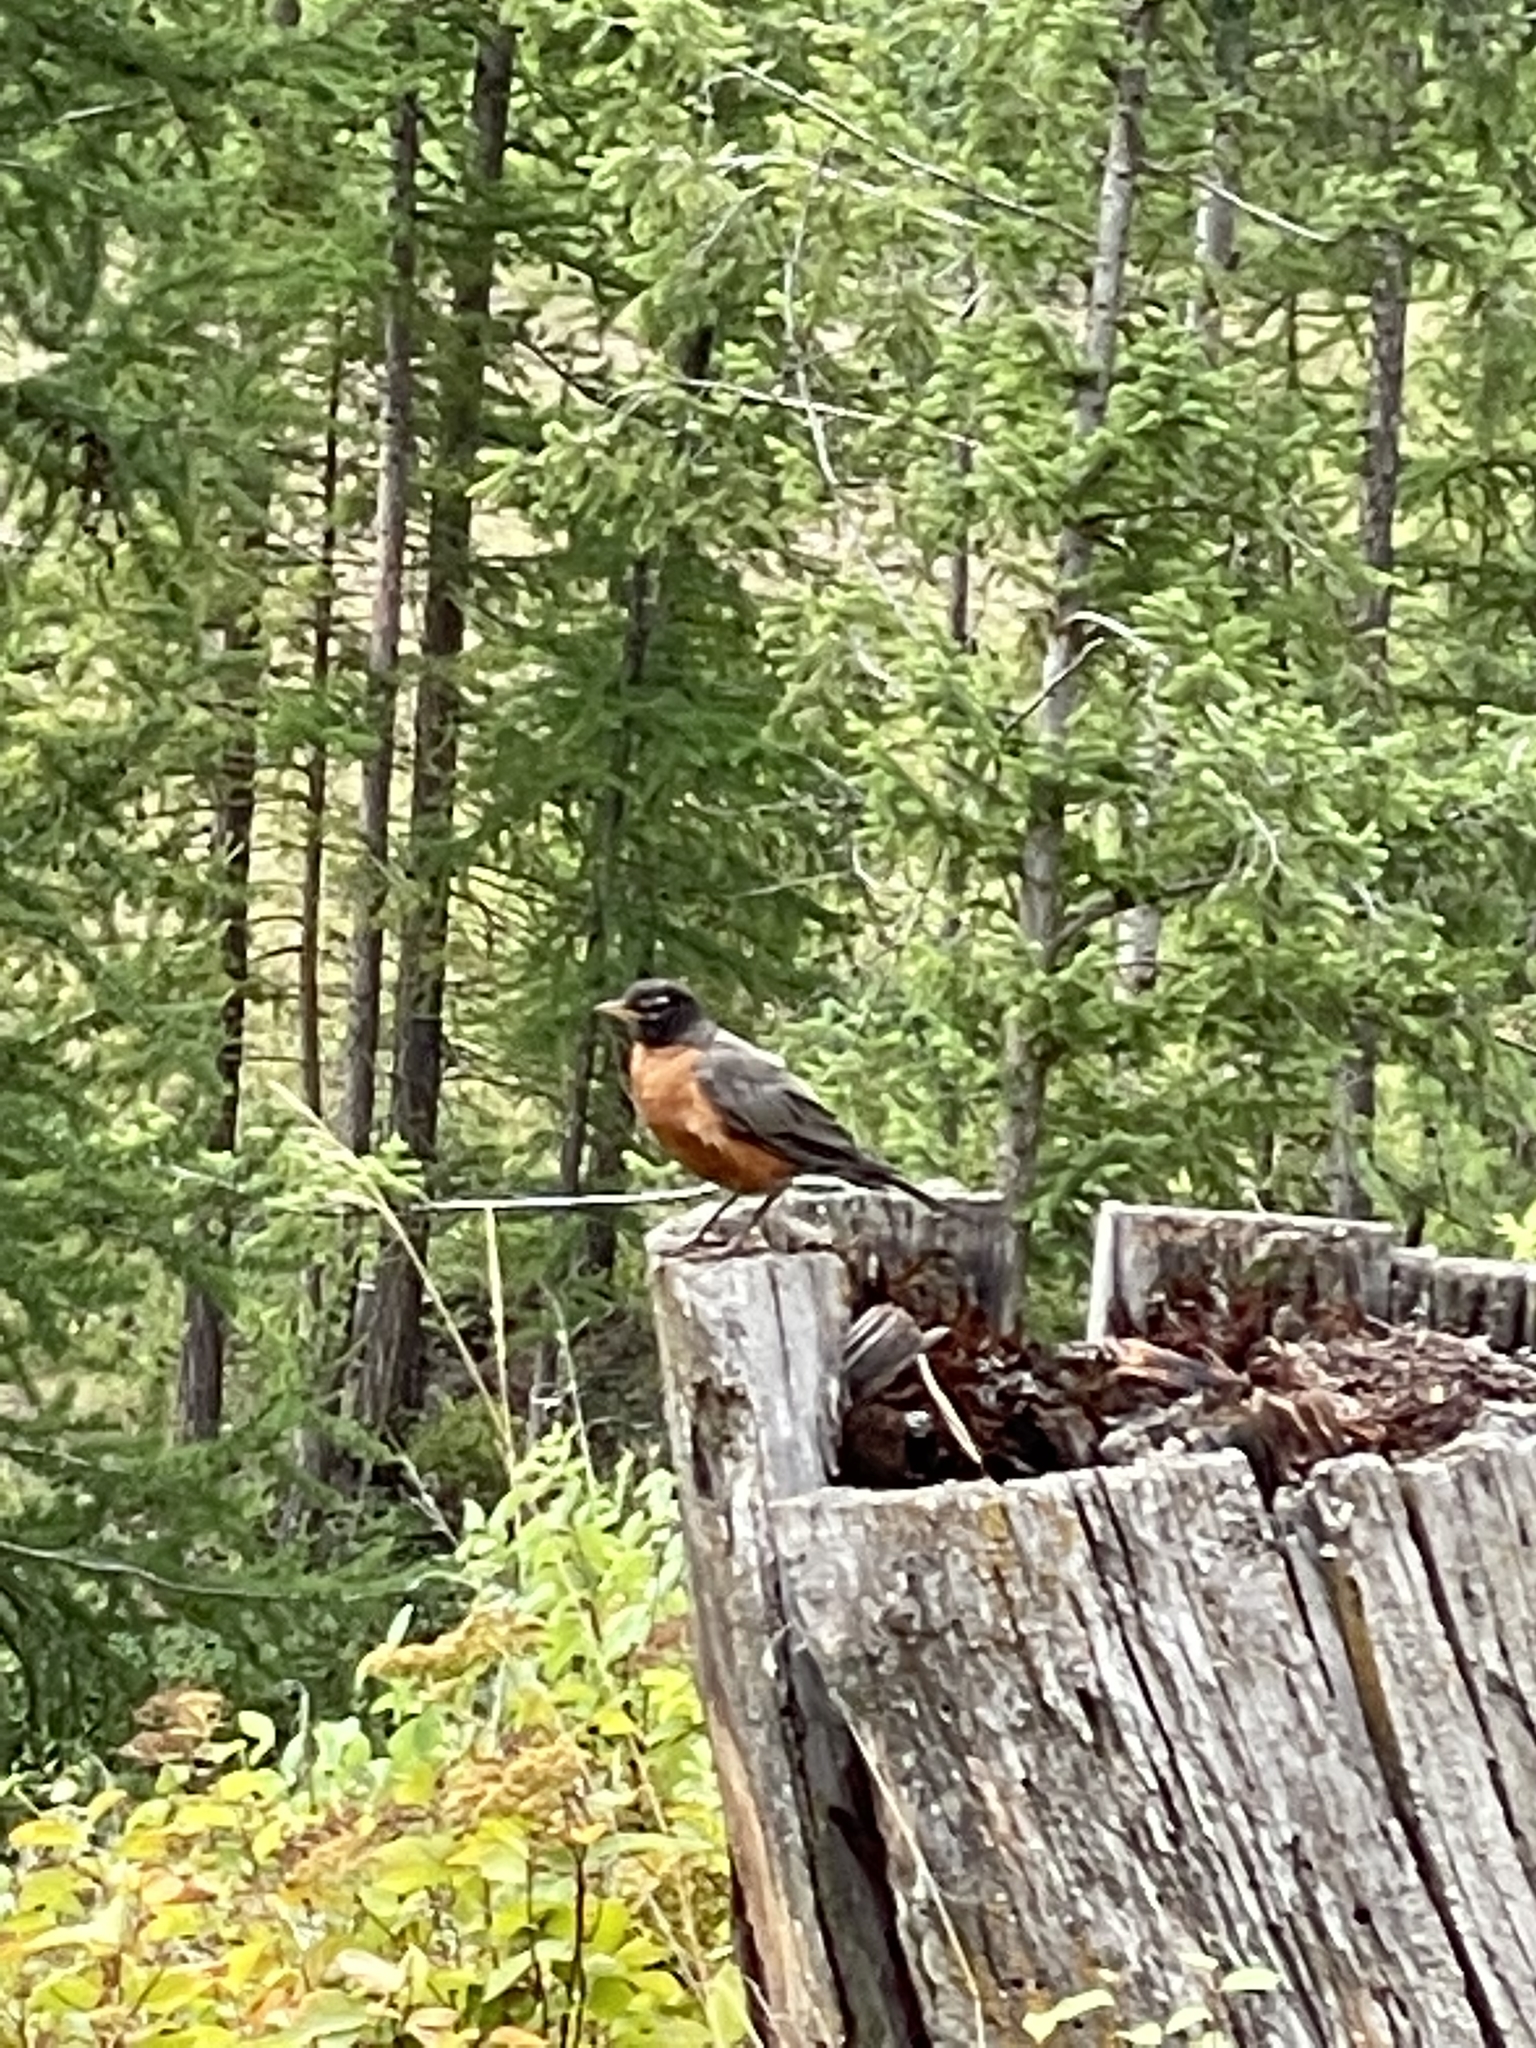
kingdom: Animalia
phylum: Chordata
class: Aves
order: Passeriformes
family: Turdidae
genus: Turdus
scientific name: Turdus migratorius
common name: American robin
